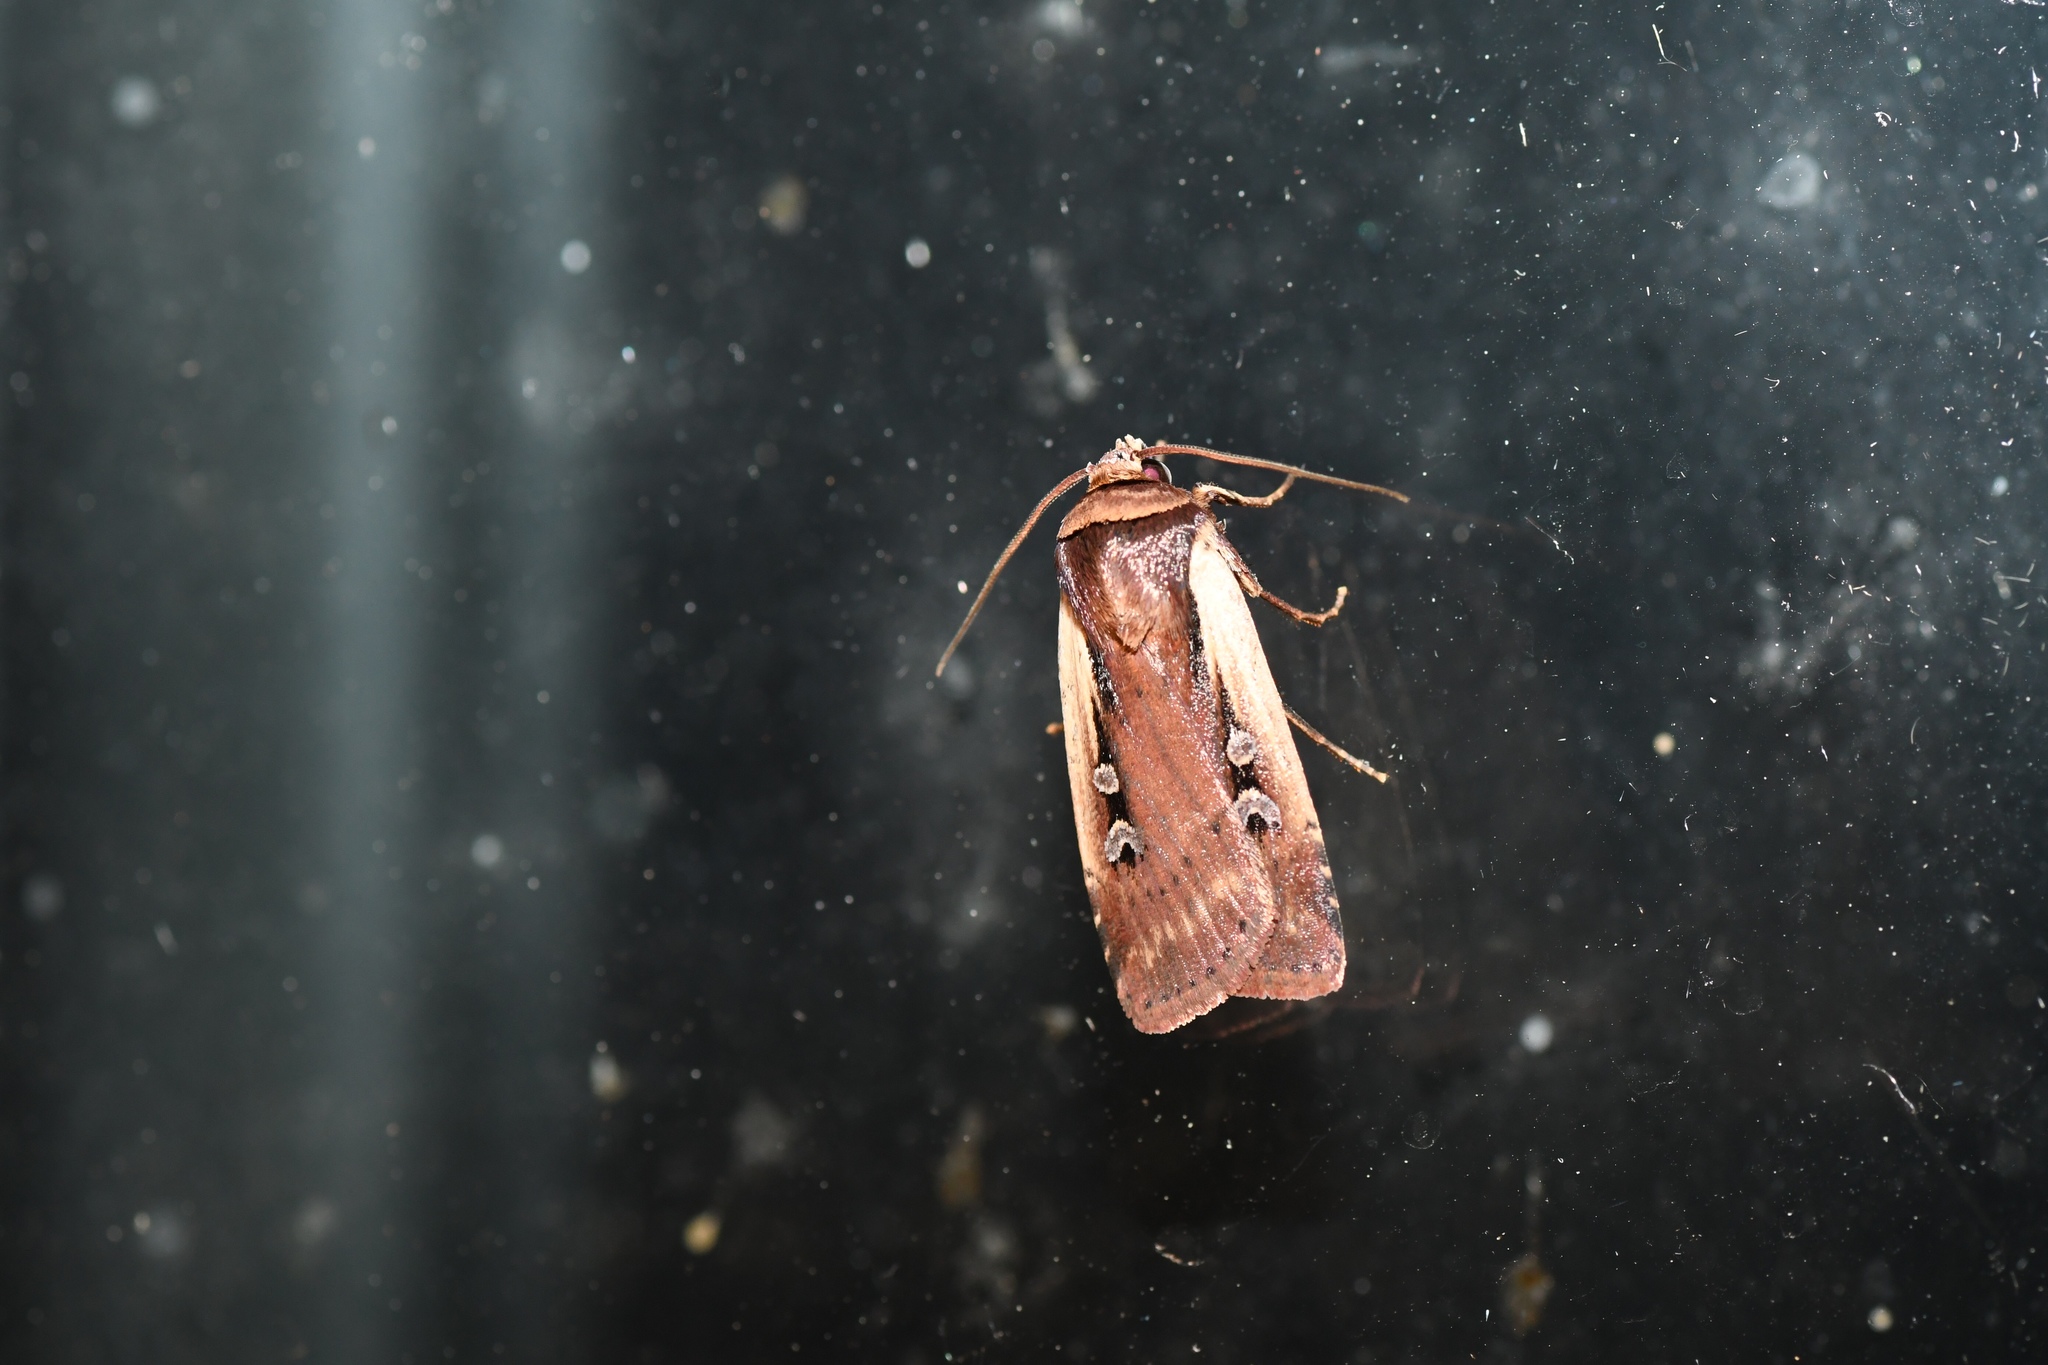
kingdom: Animalia
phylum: Arthropoda
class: Insecta
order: Lepidoptera
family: Noctuidae
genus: Ochropleura
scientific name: Ochropleura implecta
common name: Flame-shouldered dart
